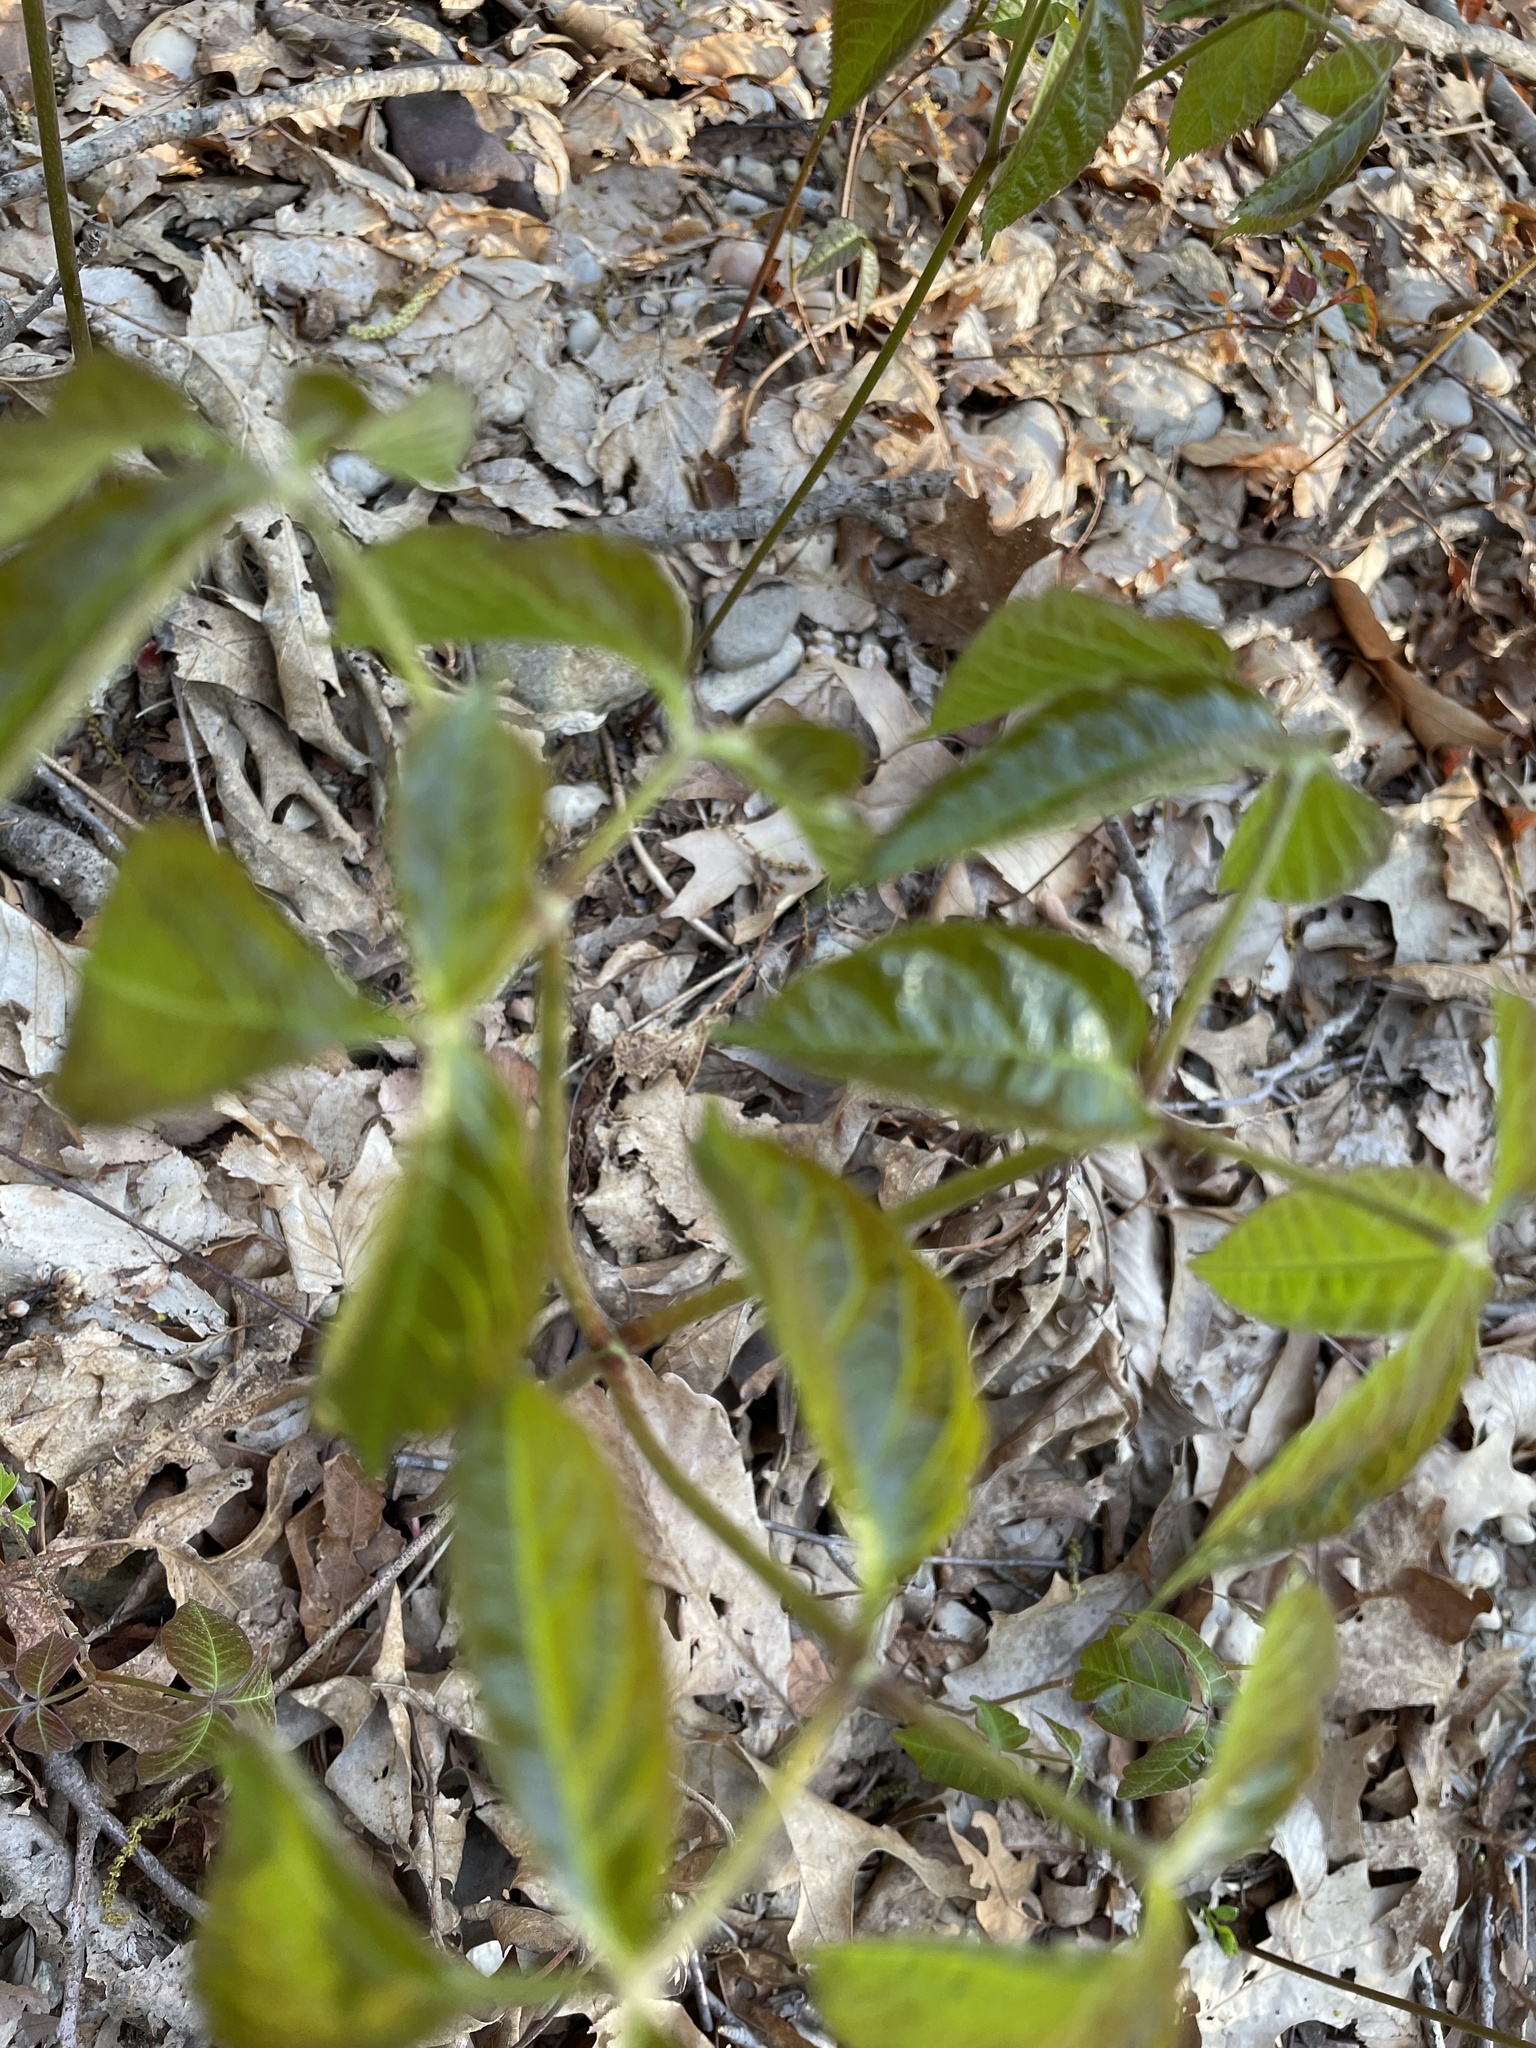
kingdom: Plantae
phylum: Tracheophyta
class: Magnoliopsida
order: Apiales
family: Araliaceae
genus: Aralia
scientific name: Aralia nudicaulis
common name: Wild sarsaparilla
